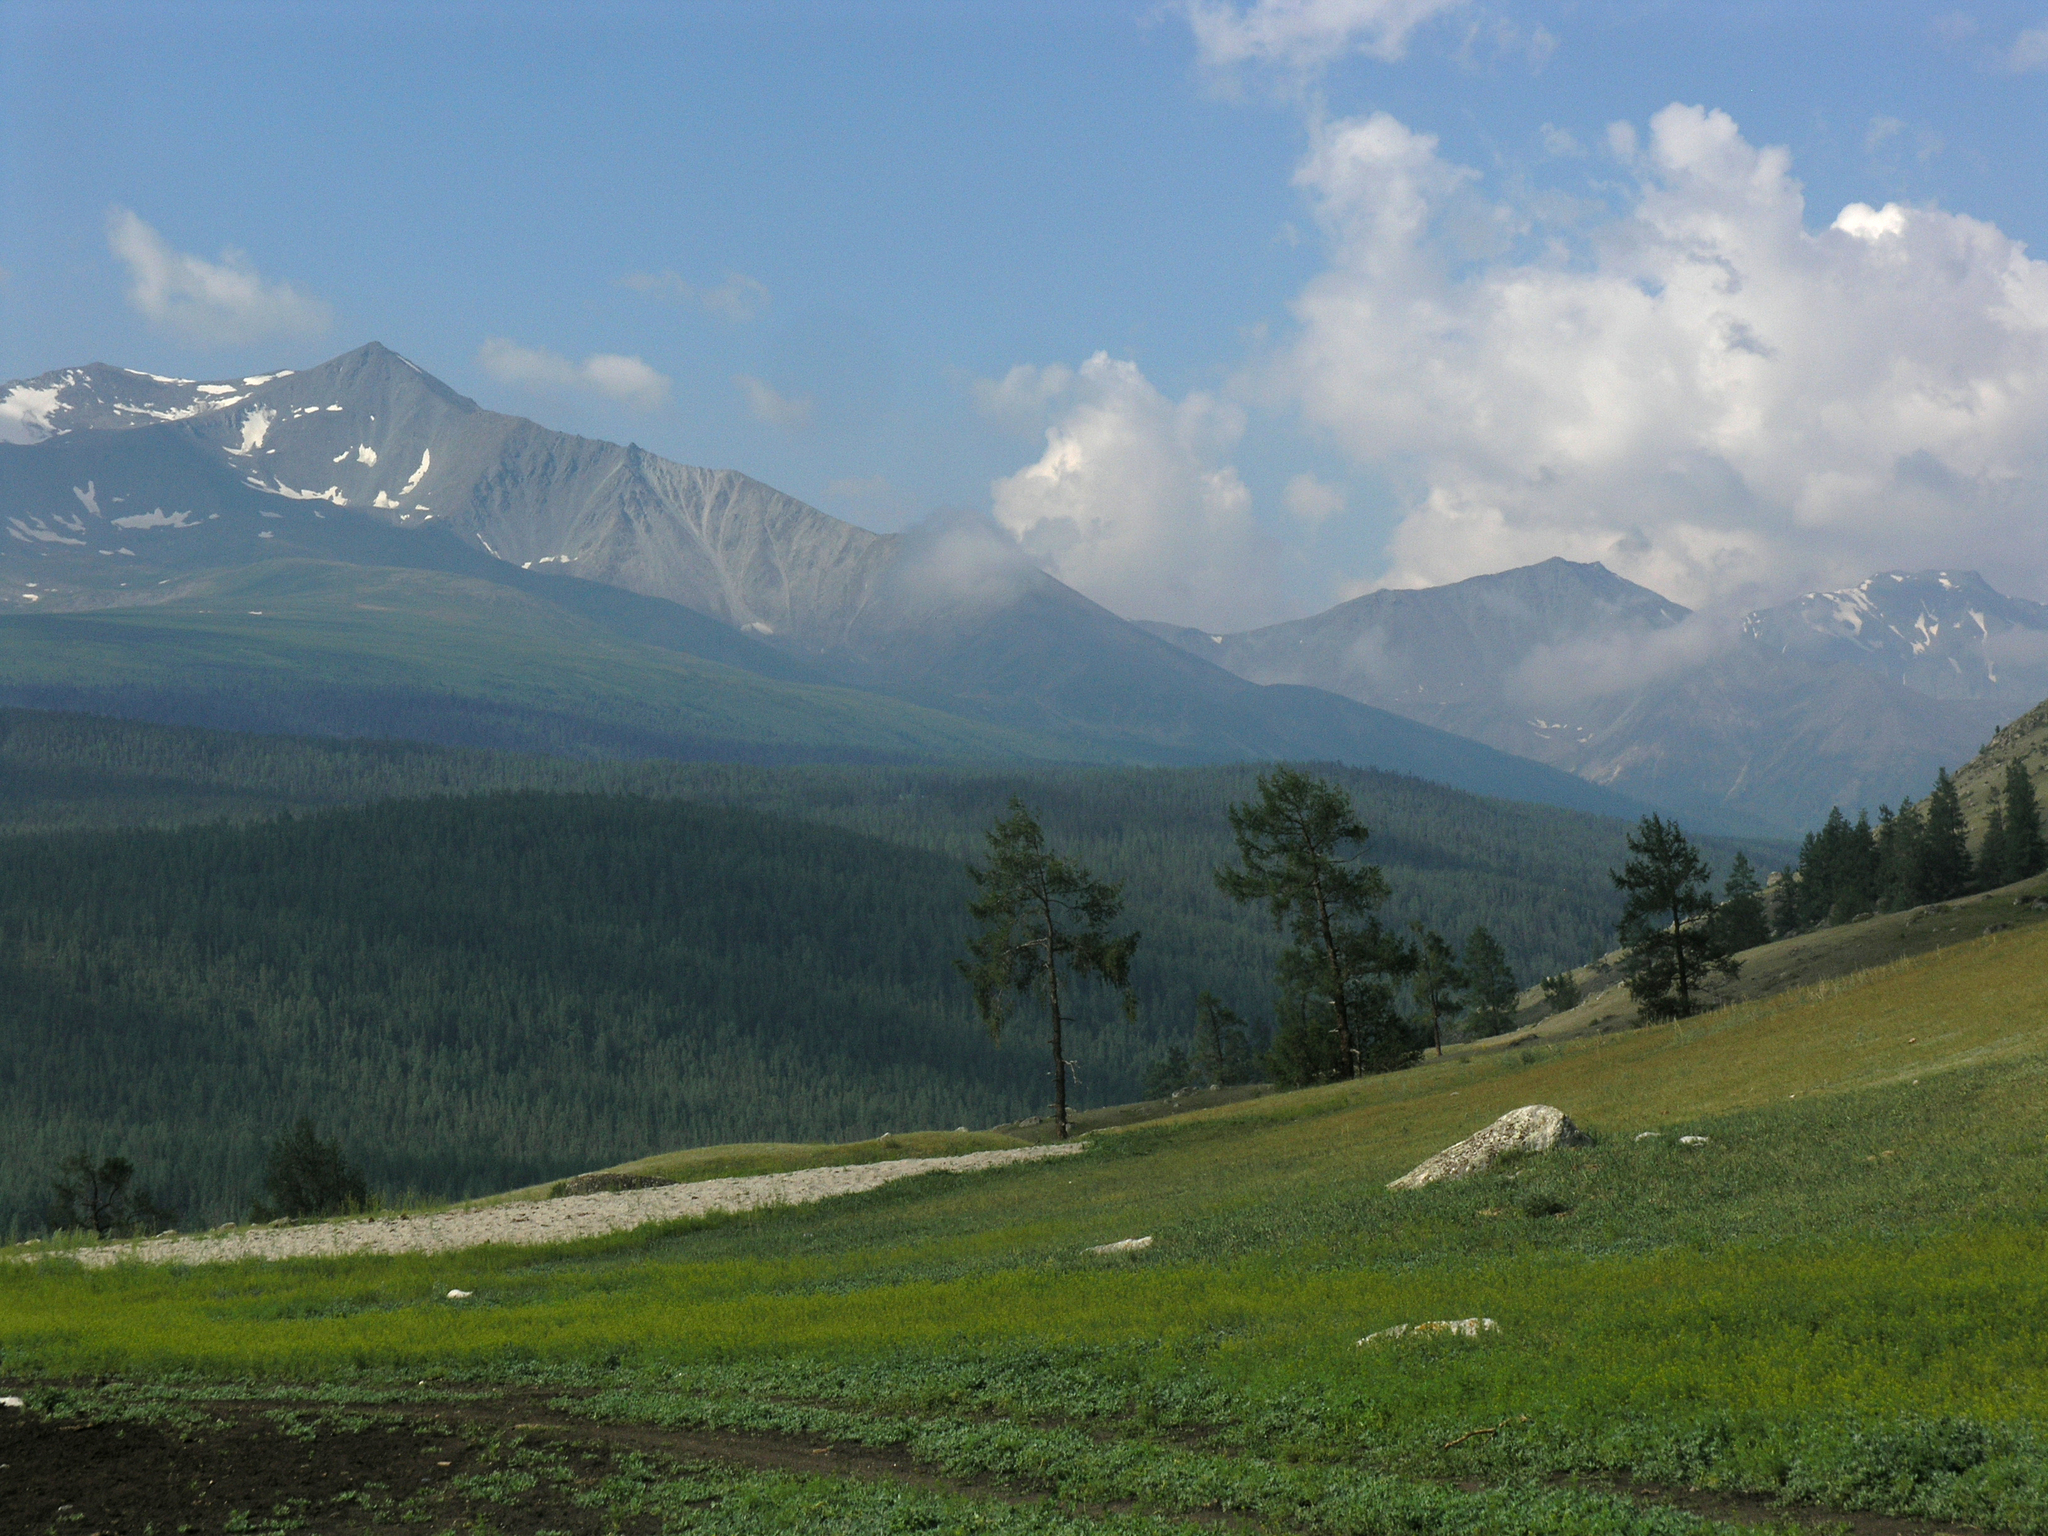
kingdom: Plantae
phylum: Tracheophyta
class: Pinopsida
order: Pinales
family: Pinaceae
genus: Larix
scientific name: Larix sibirica
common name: Siberian larch
